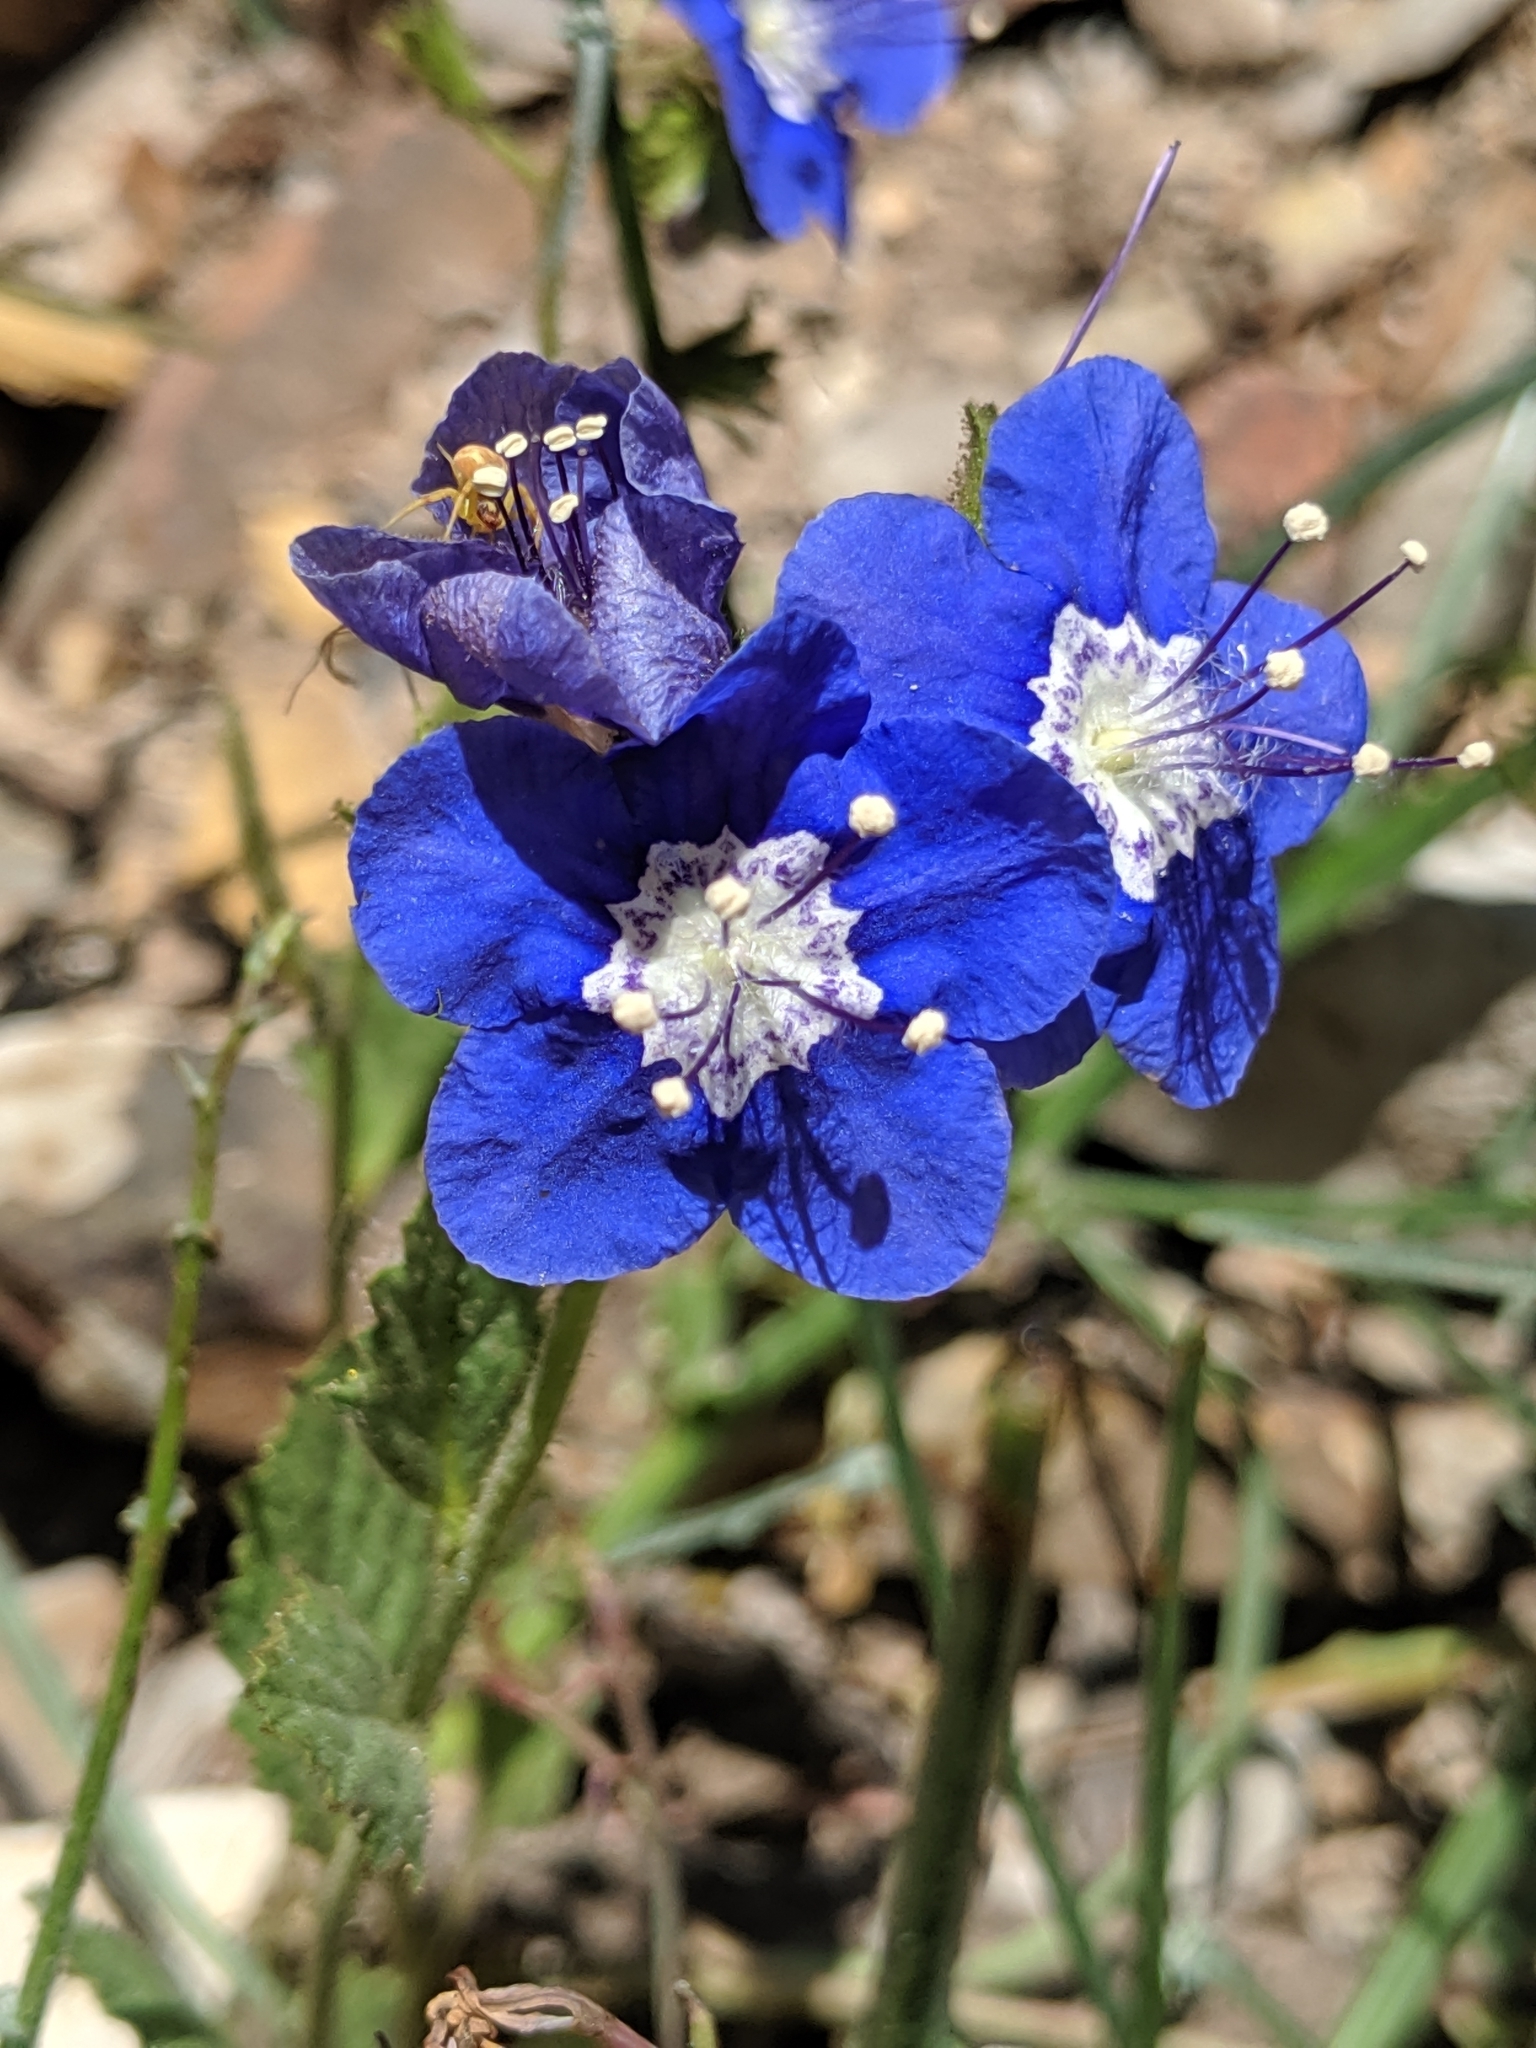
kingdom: Plantae
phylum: Tracheophyta
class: Magnoliopsida
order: Boraginales
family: Hydrophyllaceae
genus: Phacelia
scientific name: Phacelia viscida
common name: Sticky phacelia
